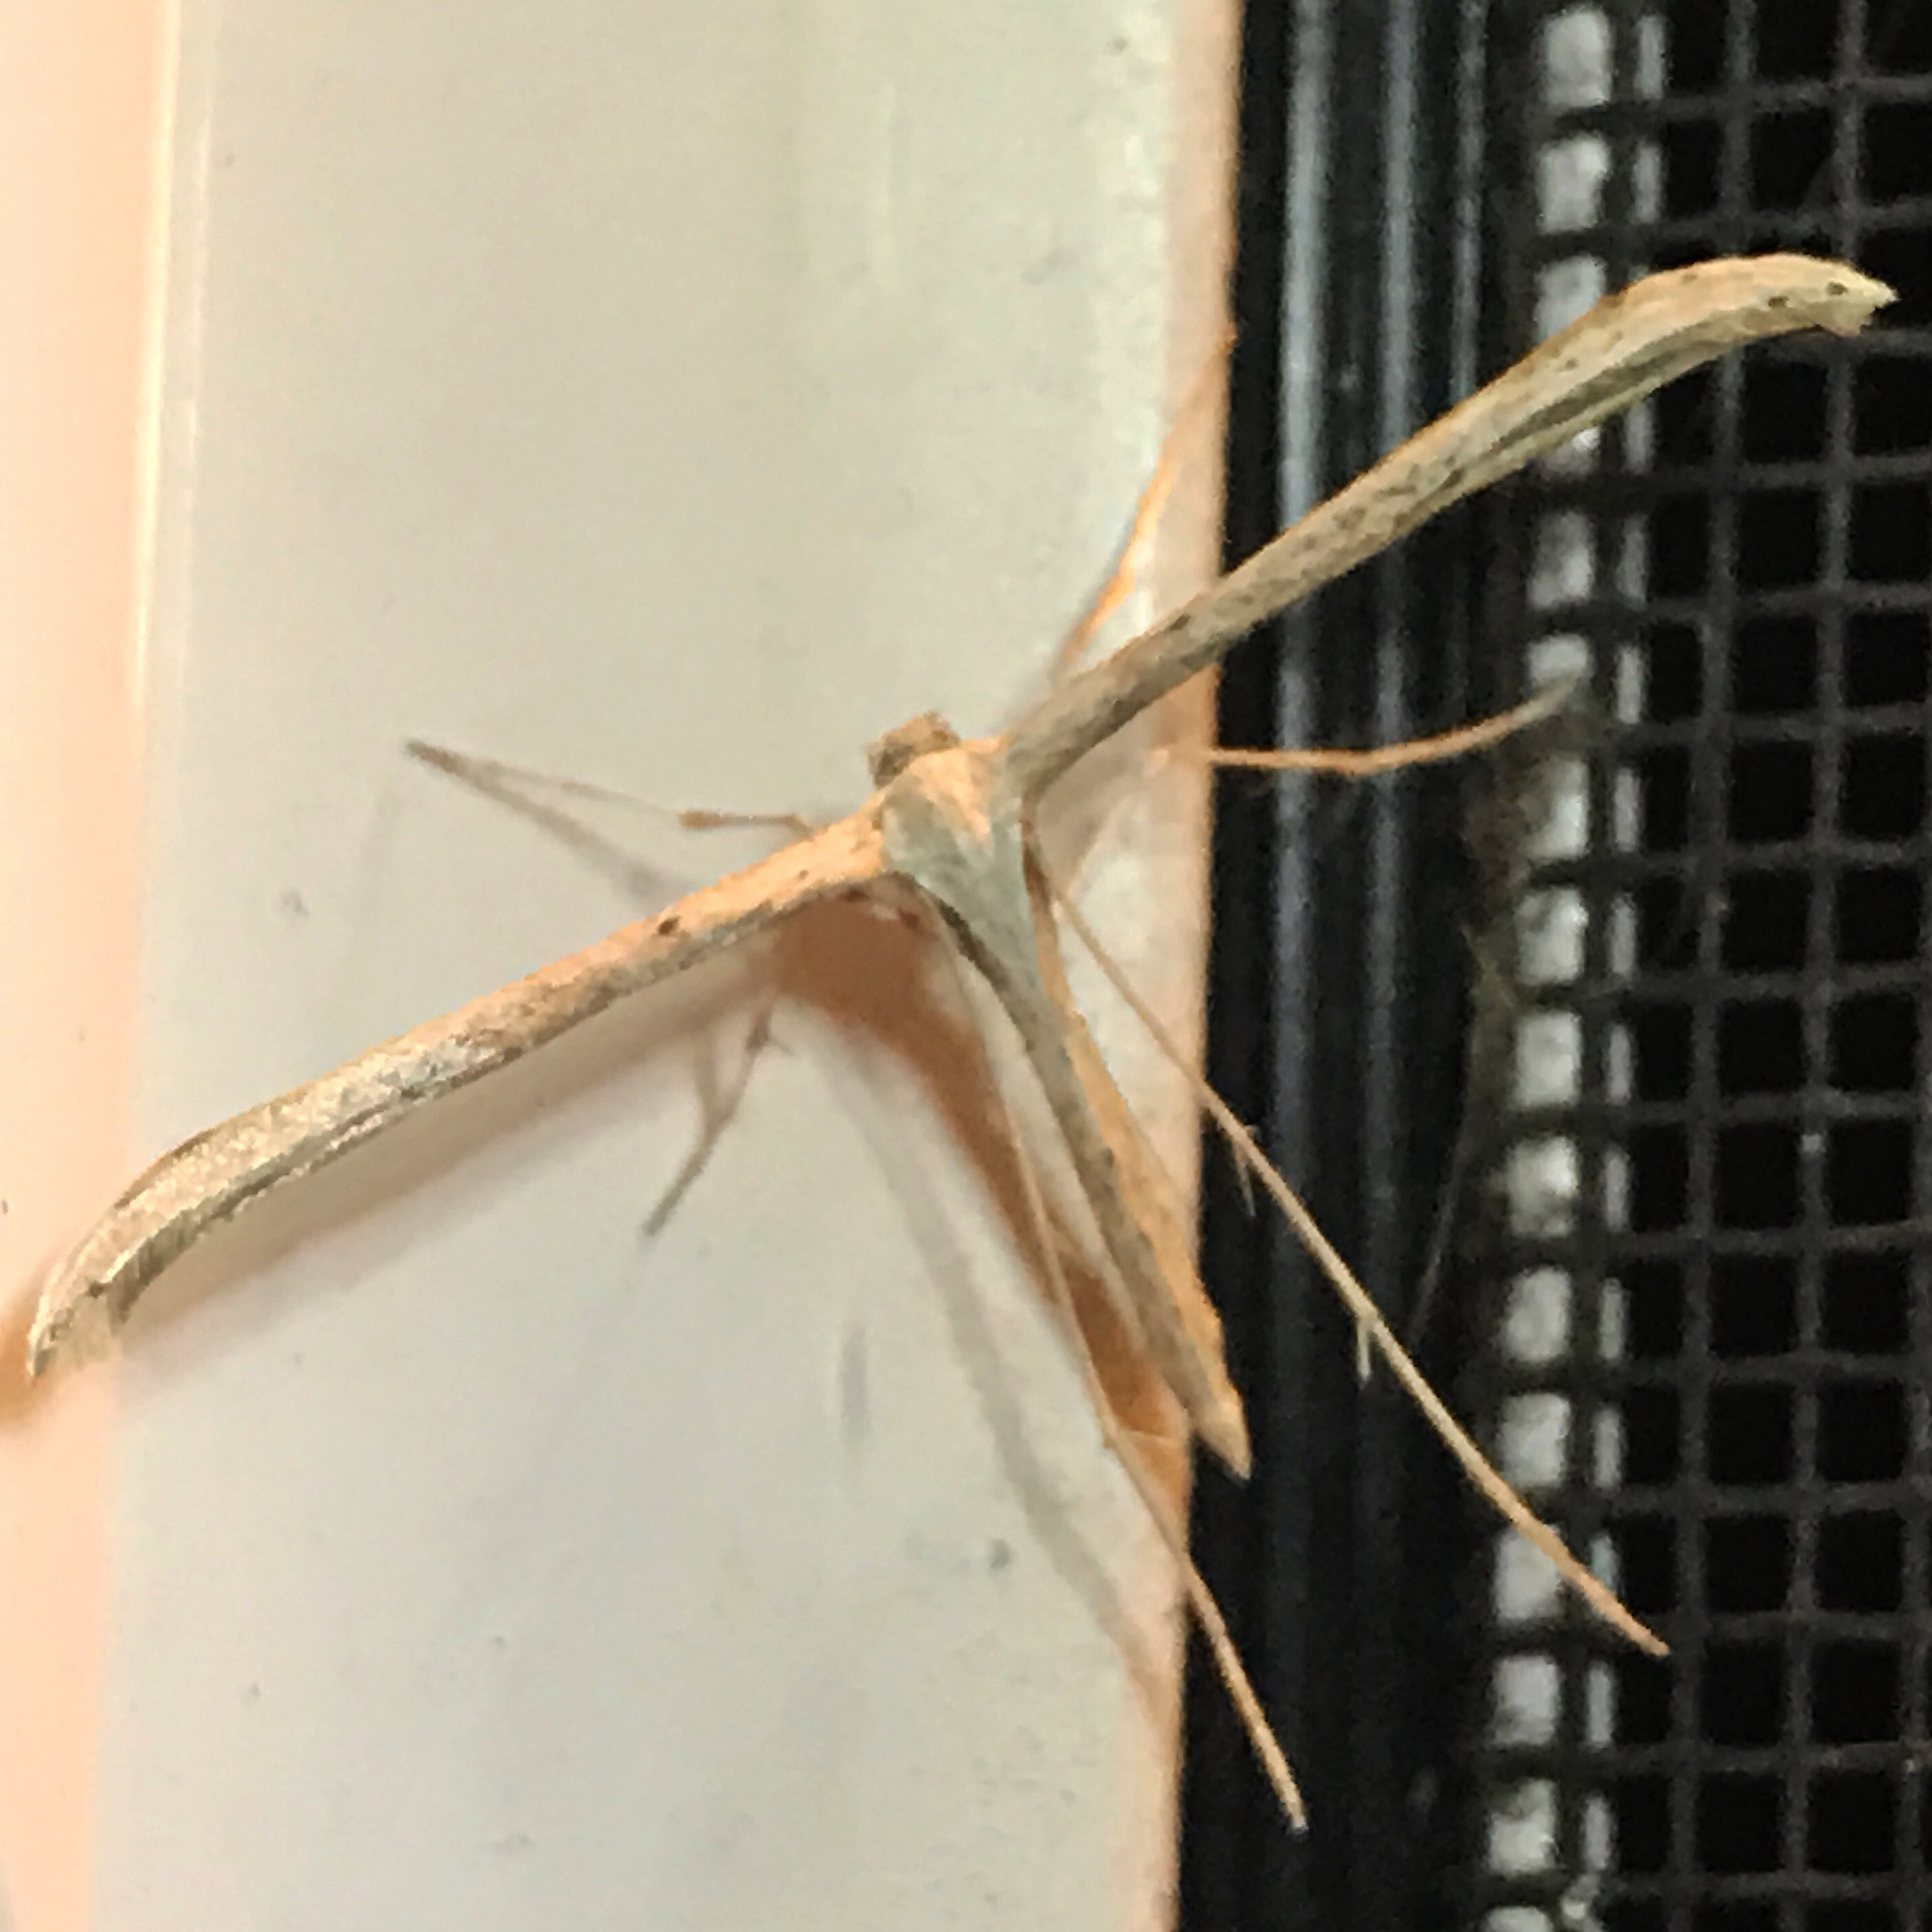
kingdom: Animalia
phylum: Arthropoda
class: Insecta
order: Lepidoptera
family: Pterophoridae
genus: Emmelina
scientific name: Emmelina monodactyla
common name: Common plume
